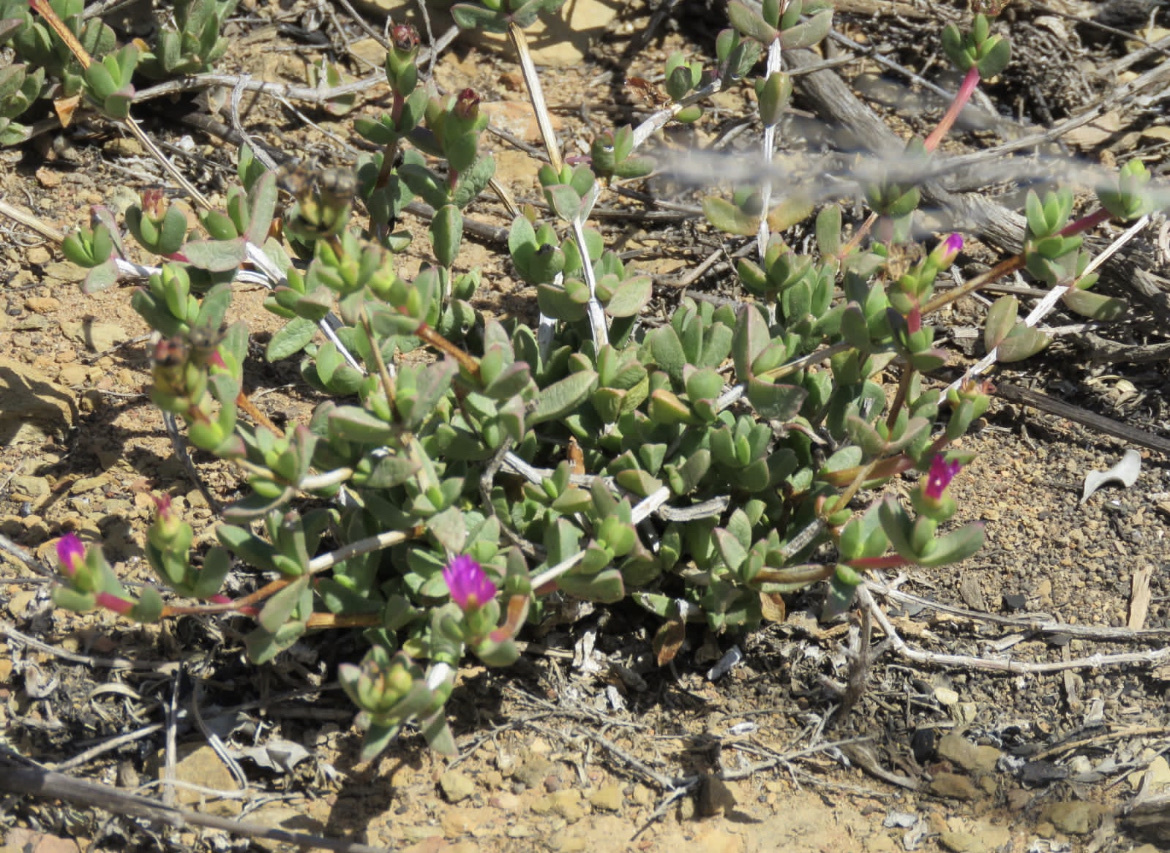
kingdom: Plantae
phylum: Tracheophyta
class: Magnoliopsida
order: Caryophyllales
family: Aizoaceae
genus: Ruschia
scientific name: Ruschia leptocalyx
